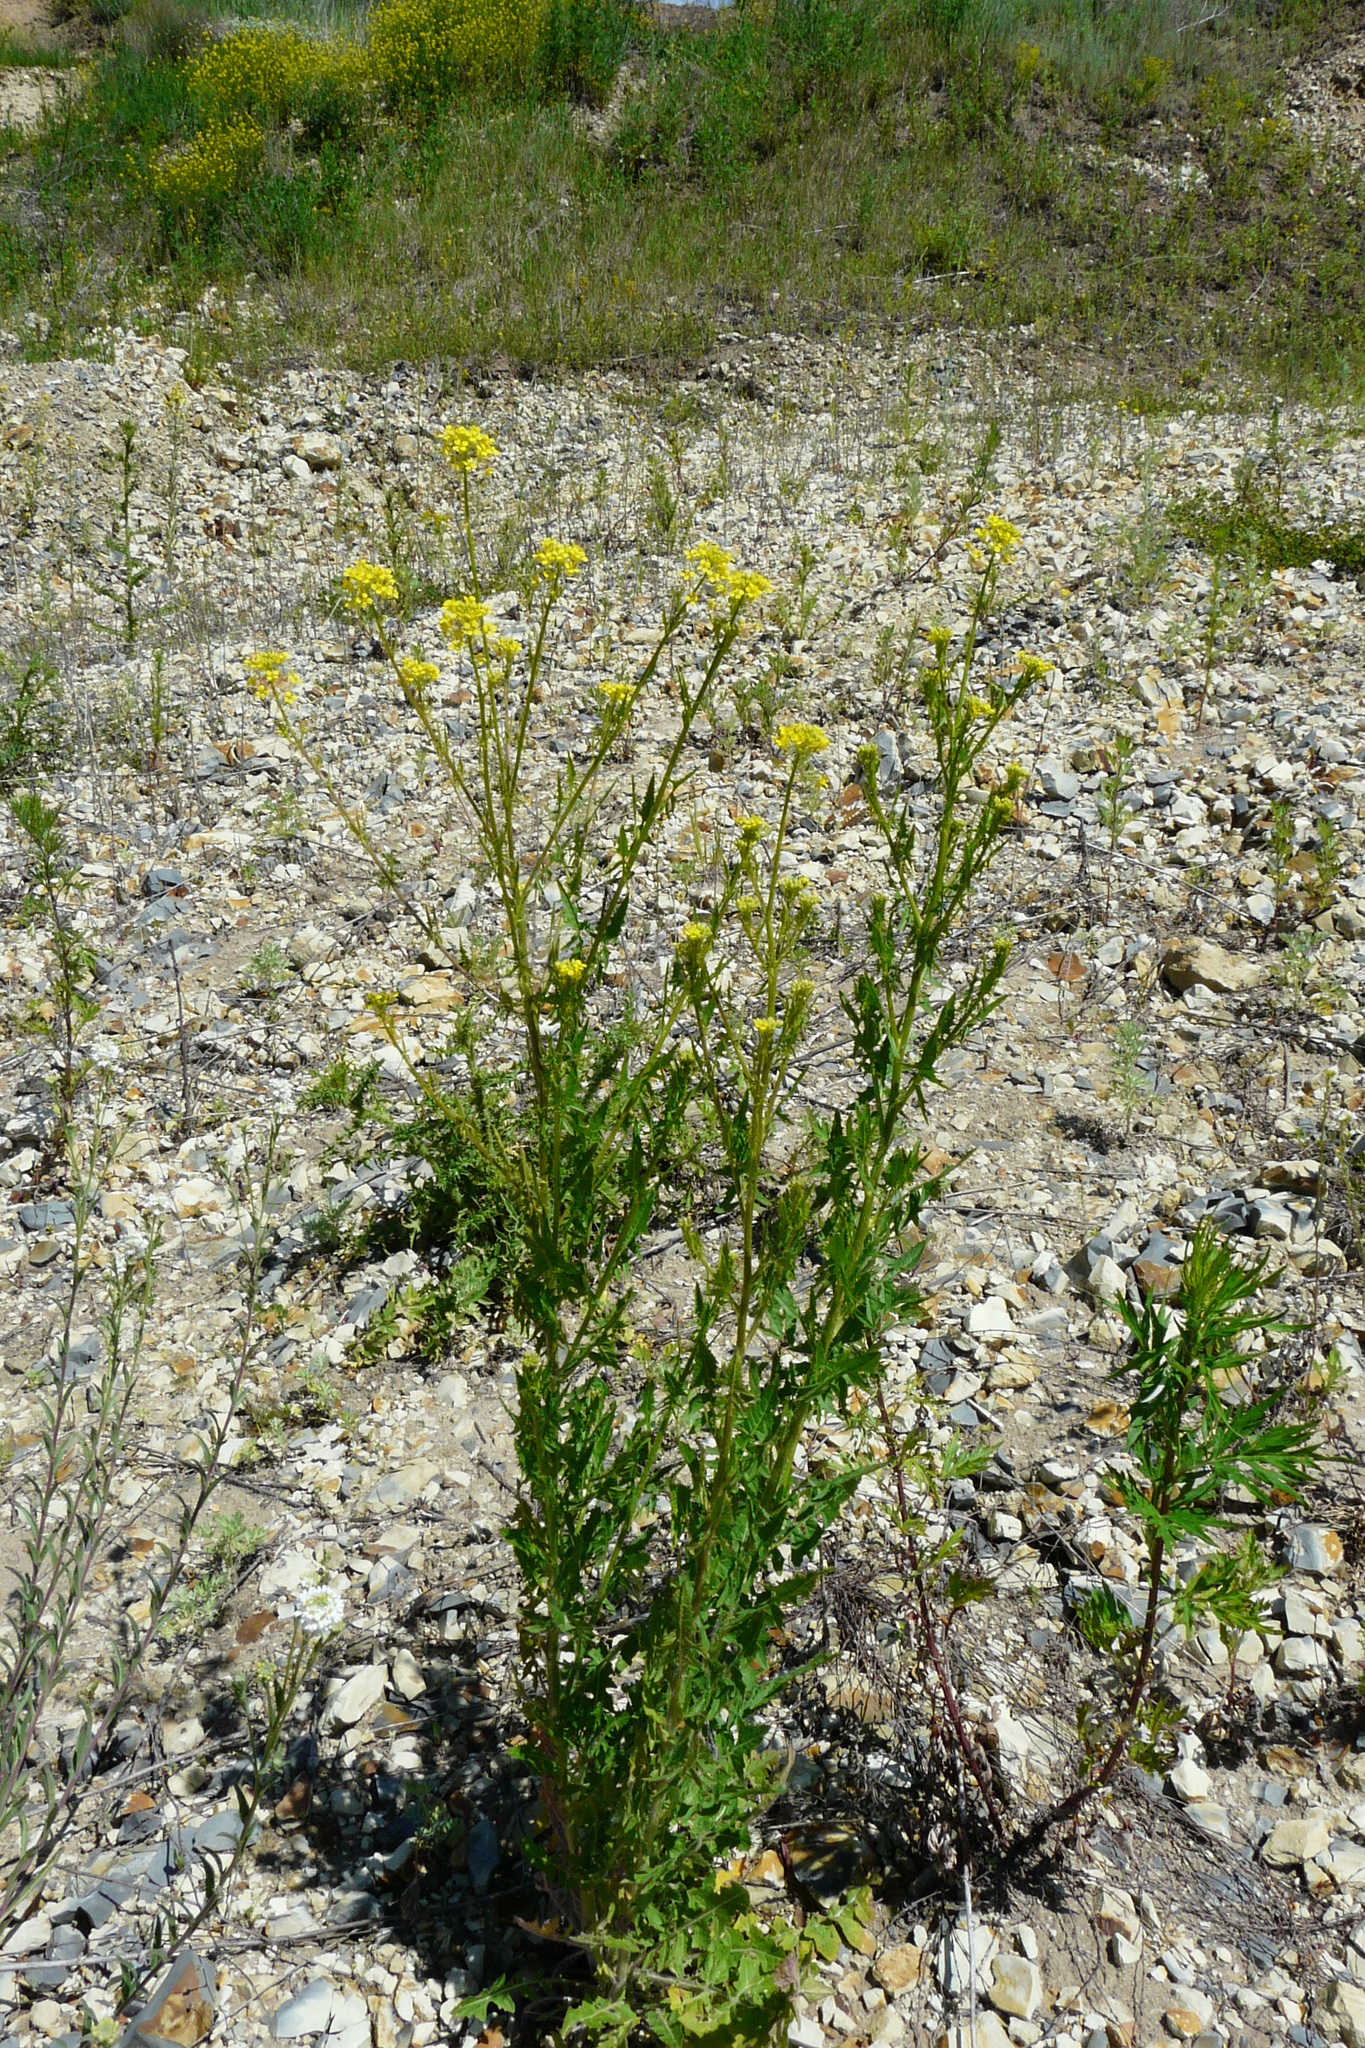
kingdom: Plantae
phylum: Tracheophyta
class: Magnoliopsida
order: Brassicales
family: Brassicaceae
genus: Sisymbrium
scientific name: Sisymbrium loeselii
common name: False london-rocket
